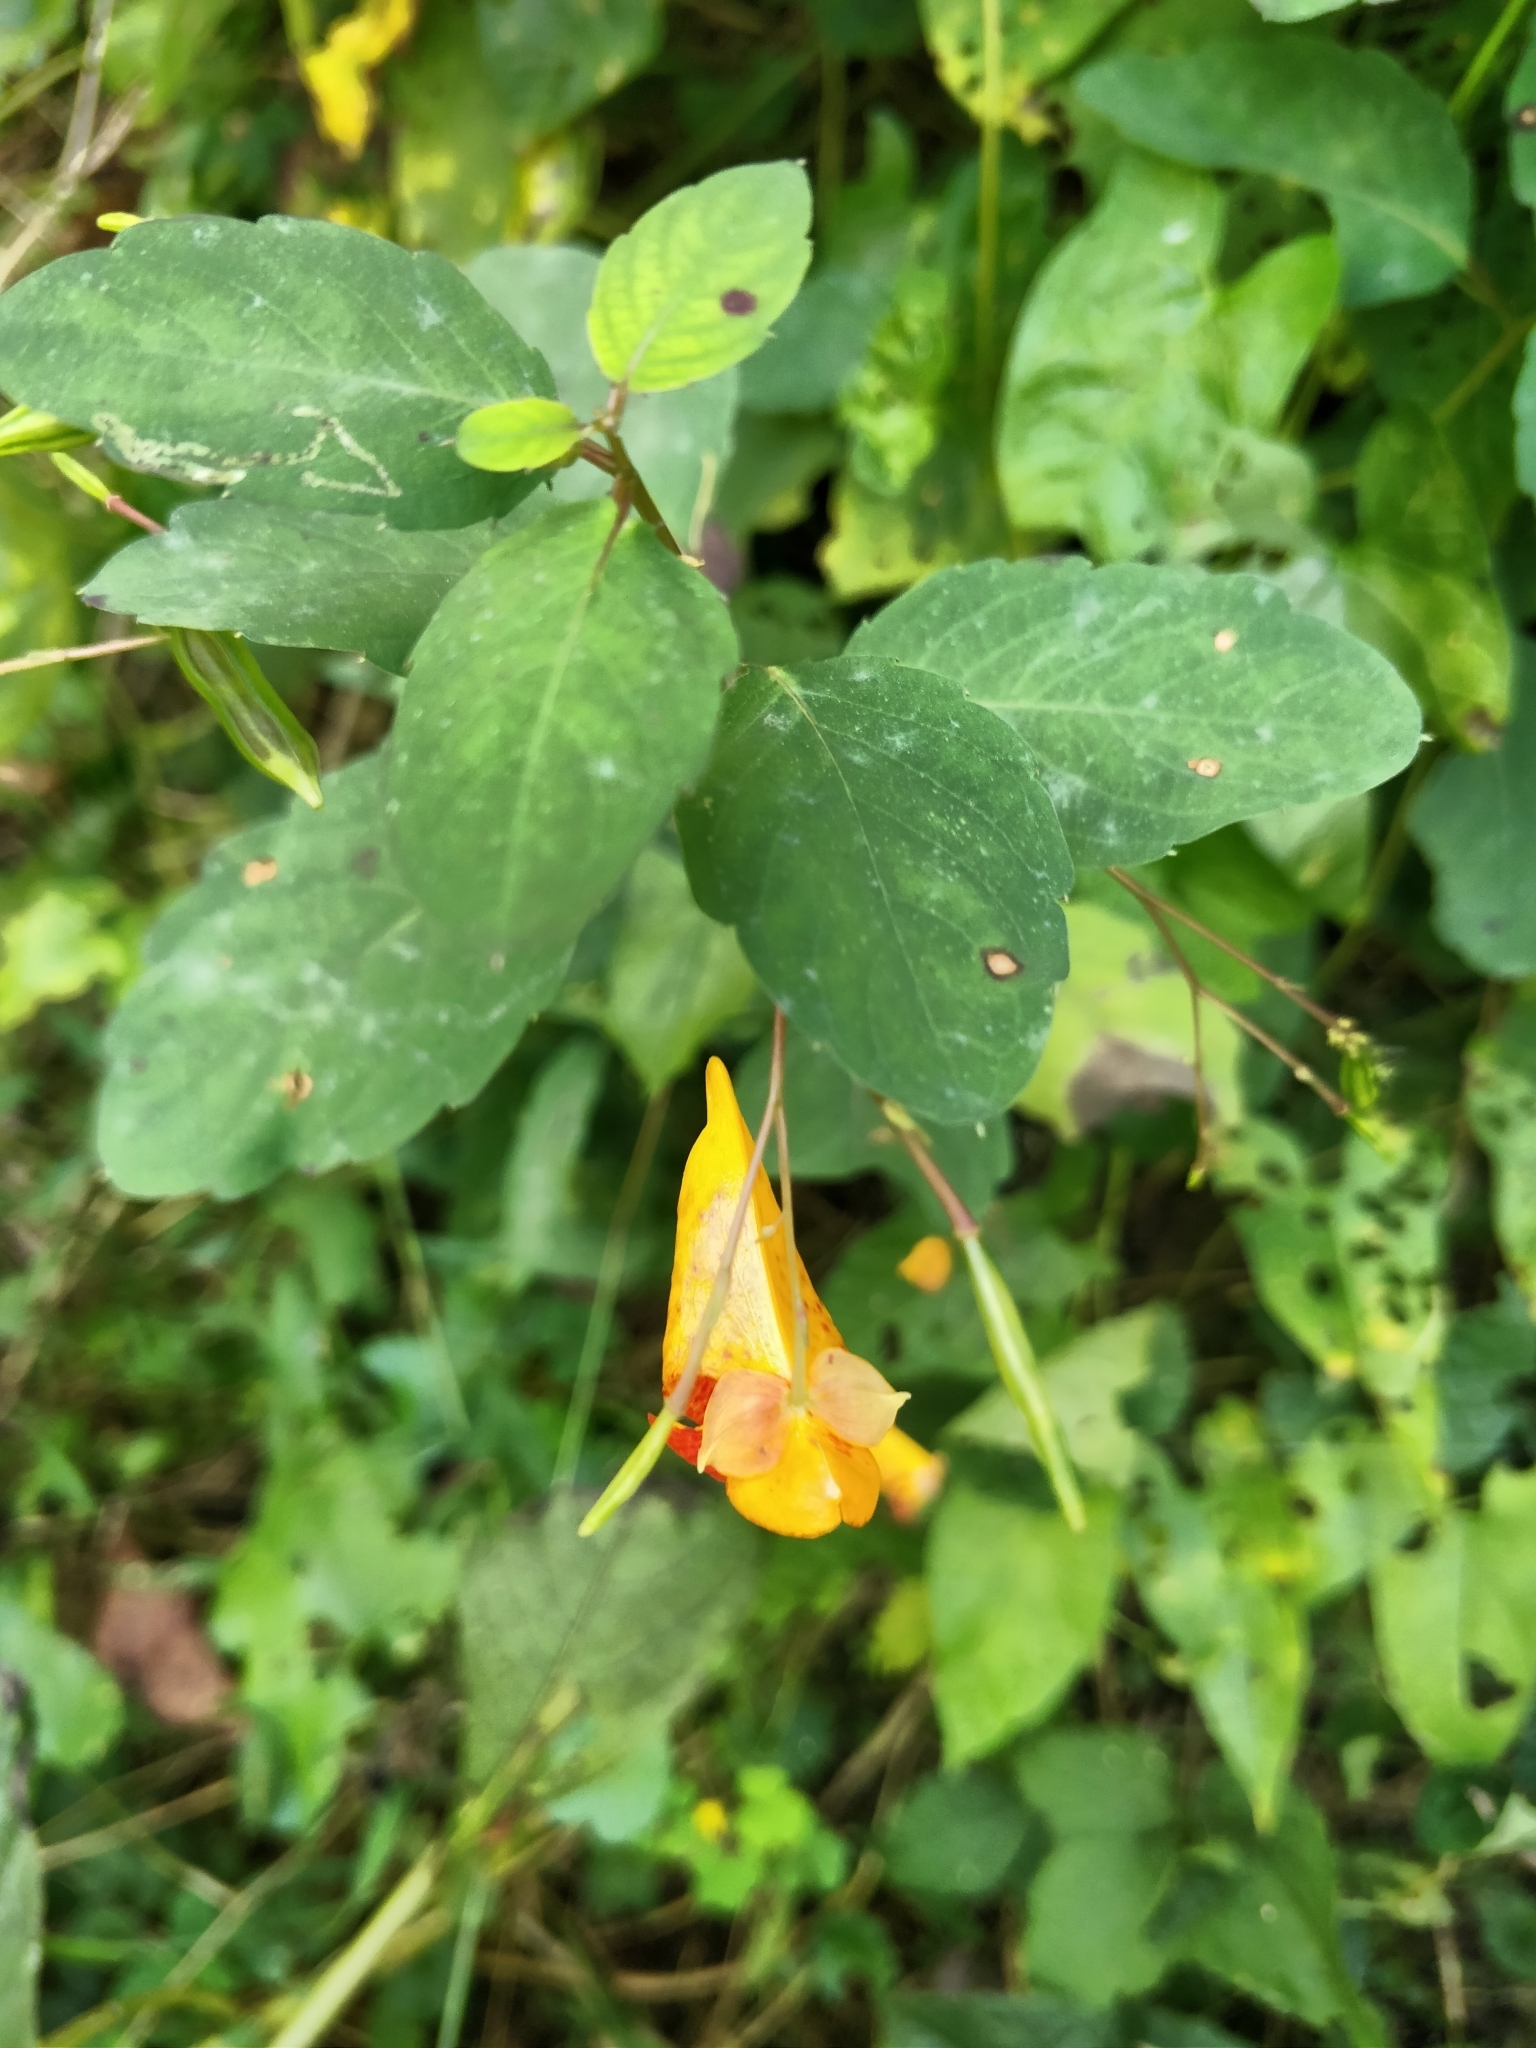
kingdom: Plantae
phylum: Tracheophyta
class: Magnoliopsida
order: Ericales
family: Balsaminaceae
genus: Impatiens
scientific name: Impatiens capensis
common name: Orange balsam
